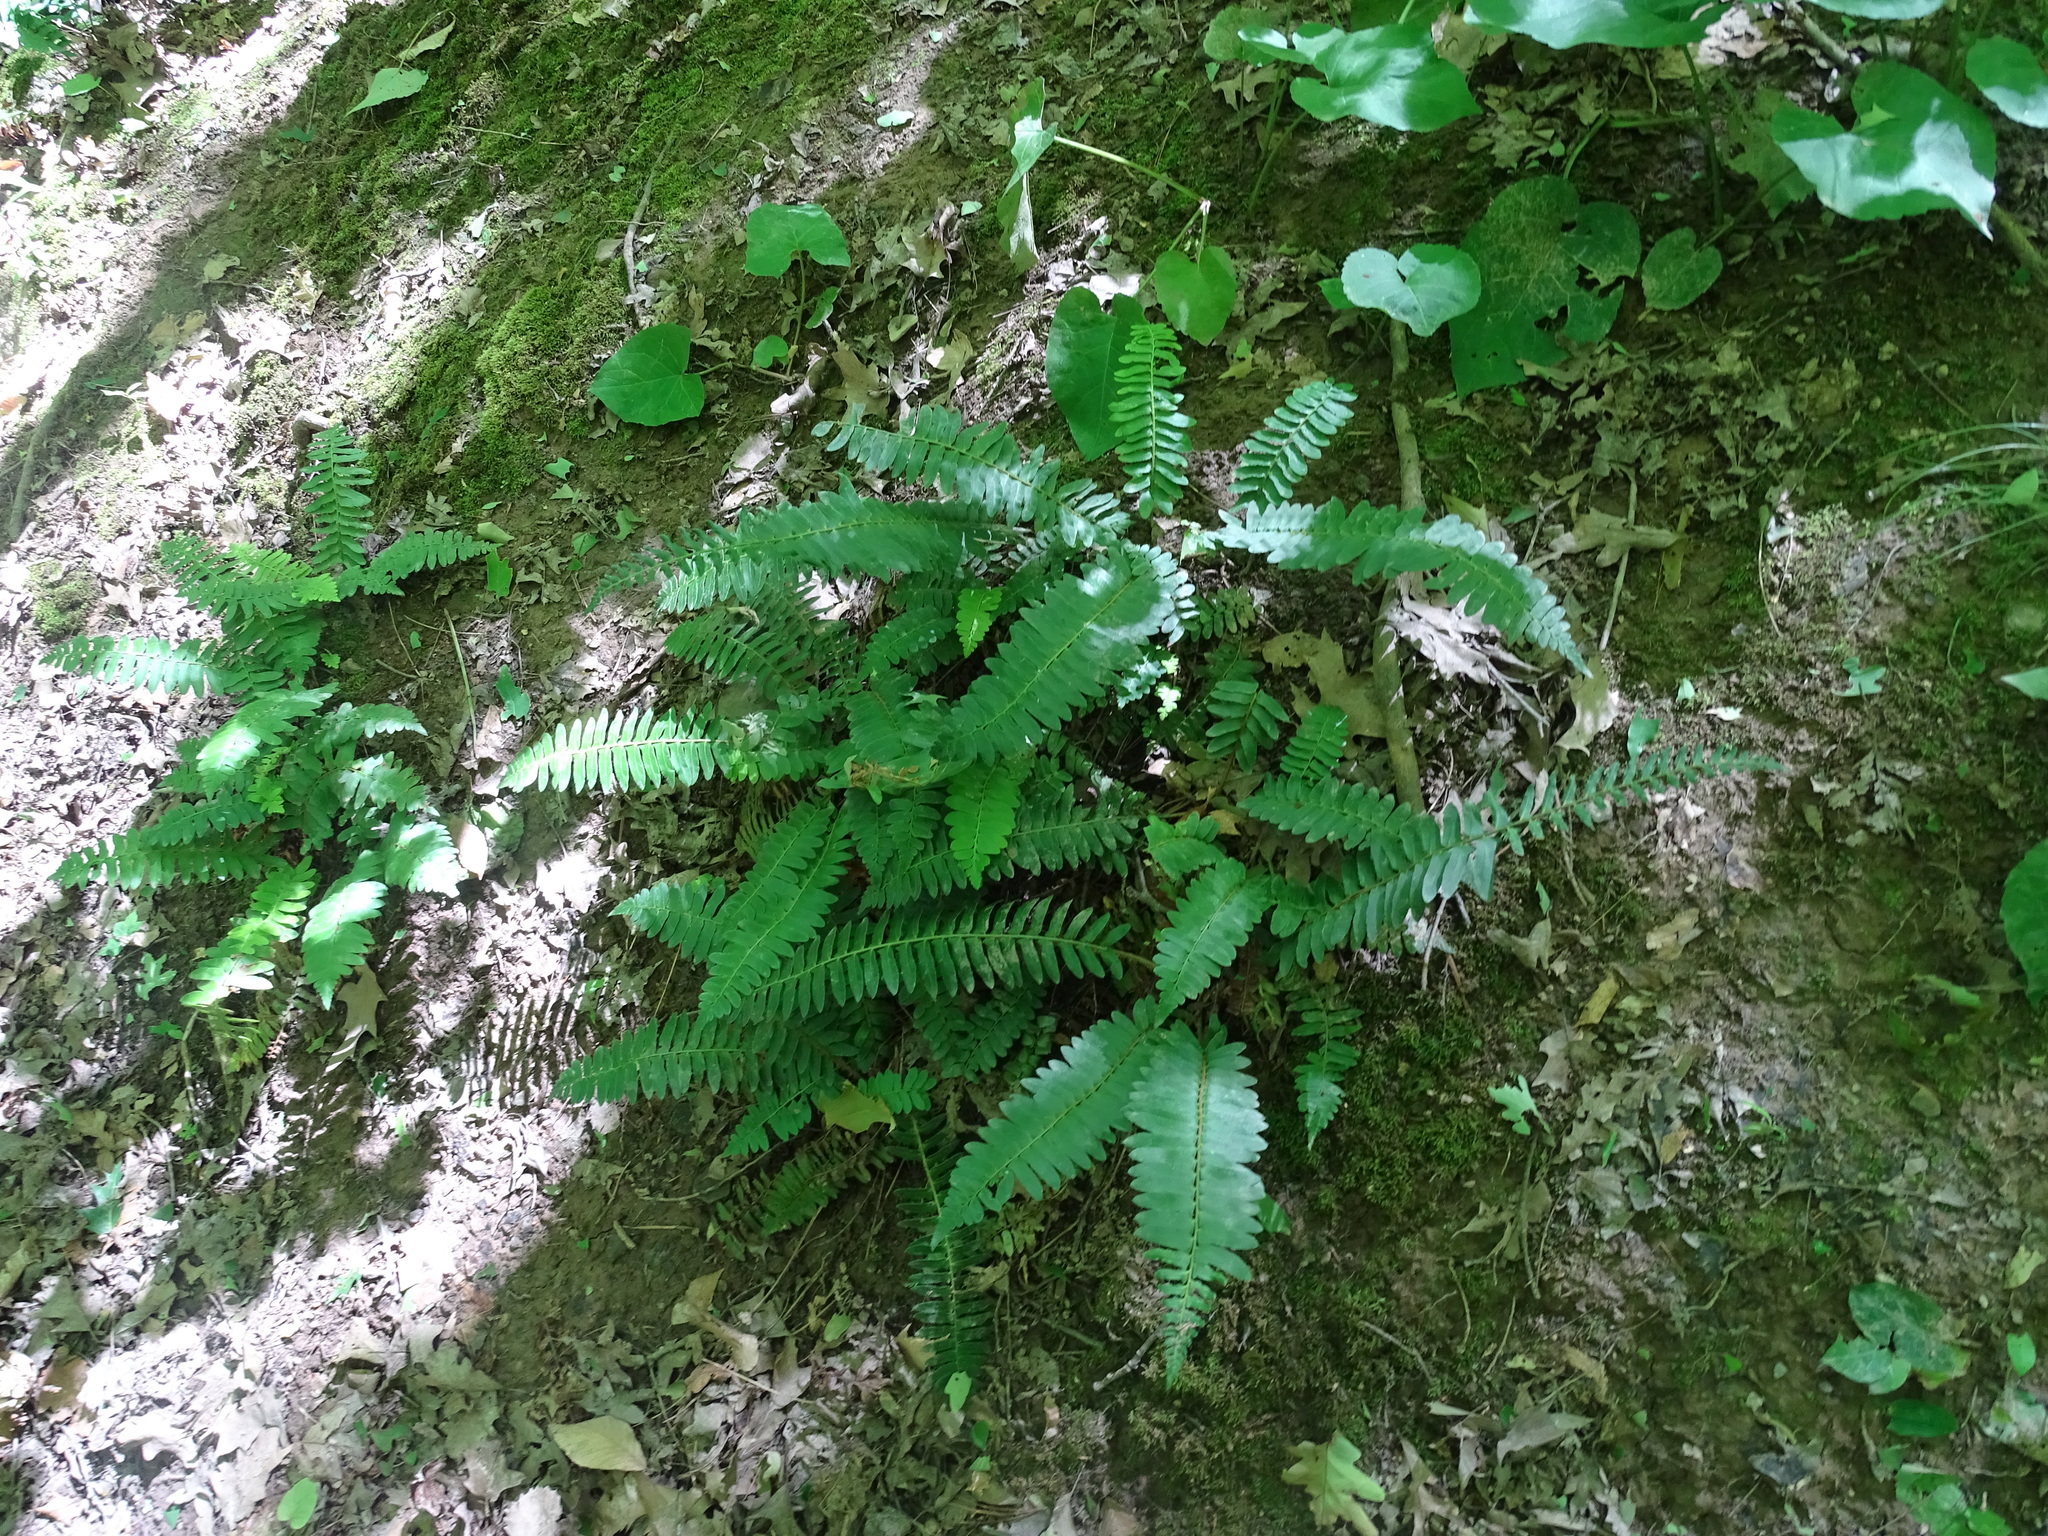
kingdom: Plantae
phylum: Tracheophyta
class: Polypodiopsida
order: Polypodiales
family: Dryopteridaceae
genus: Polystichum
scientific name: Polystichum acrostichoides
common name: Christmas fern
